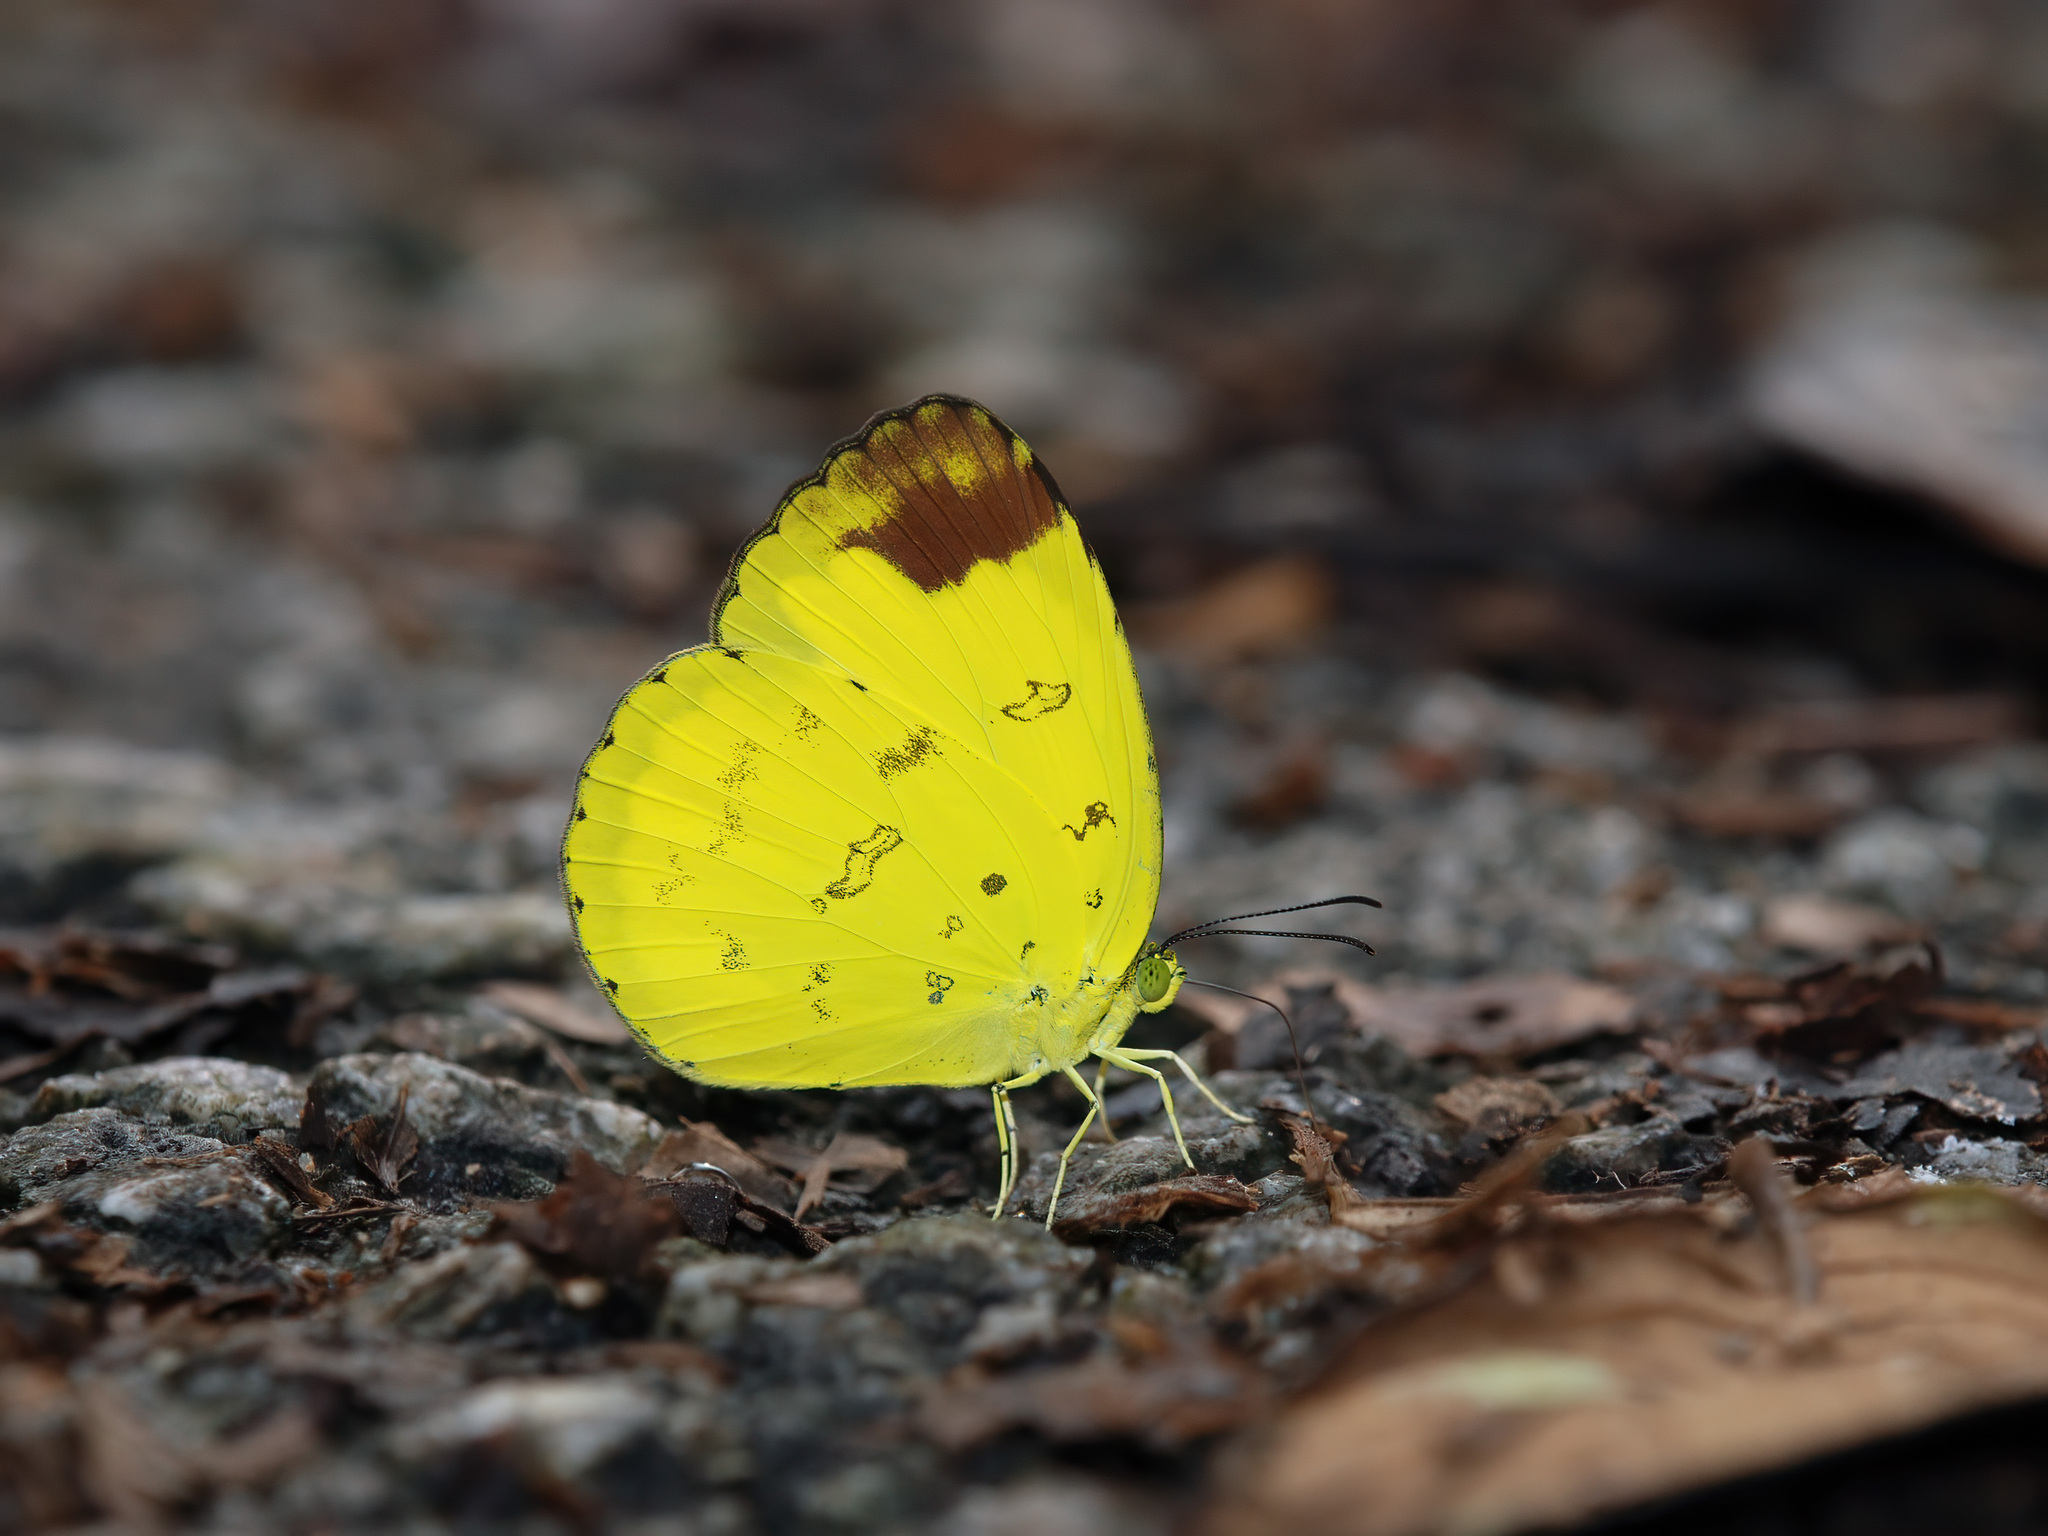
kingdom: Animalia
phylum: Arthropoda
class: Insecta
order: Lepidoptera
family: Pieridae
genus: Eurema
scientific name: Eurema simulatrix
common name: Hill grass yellow
